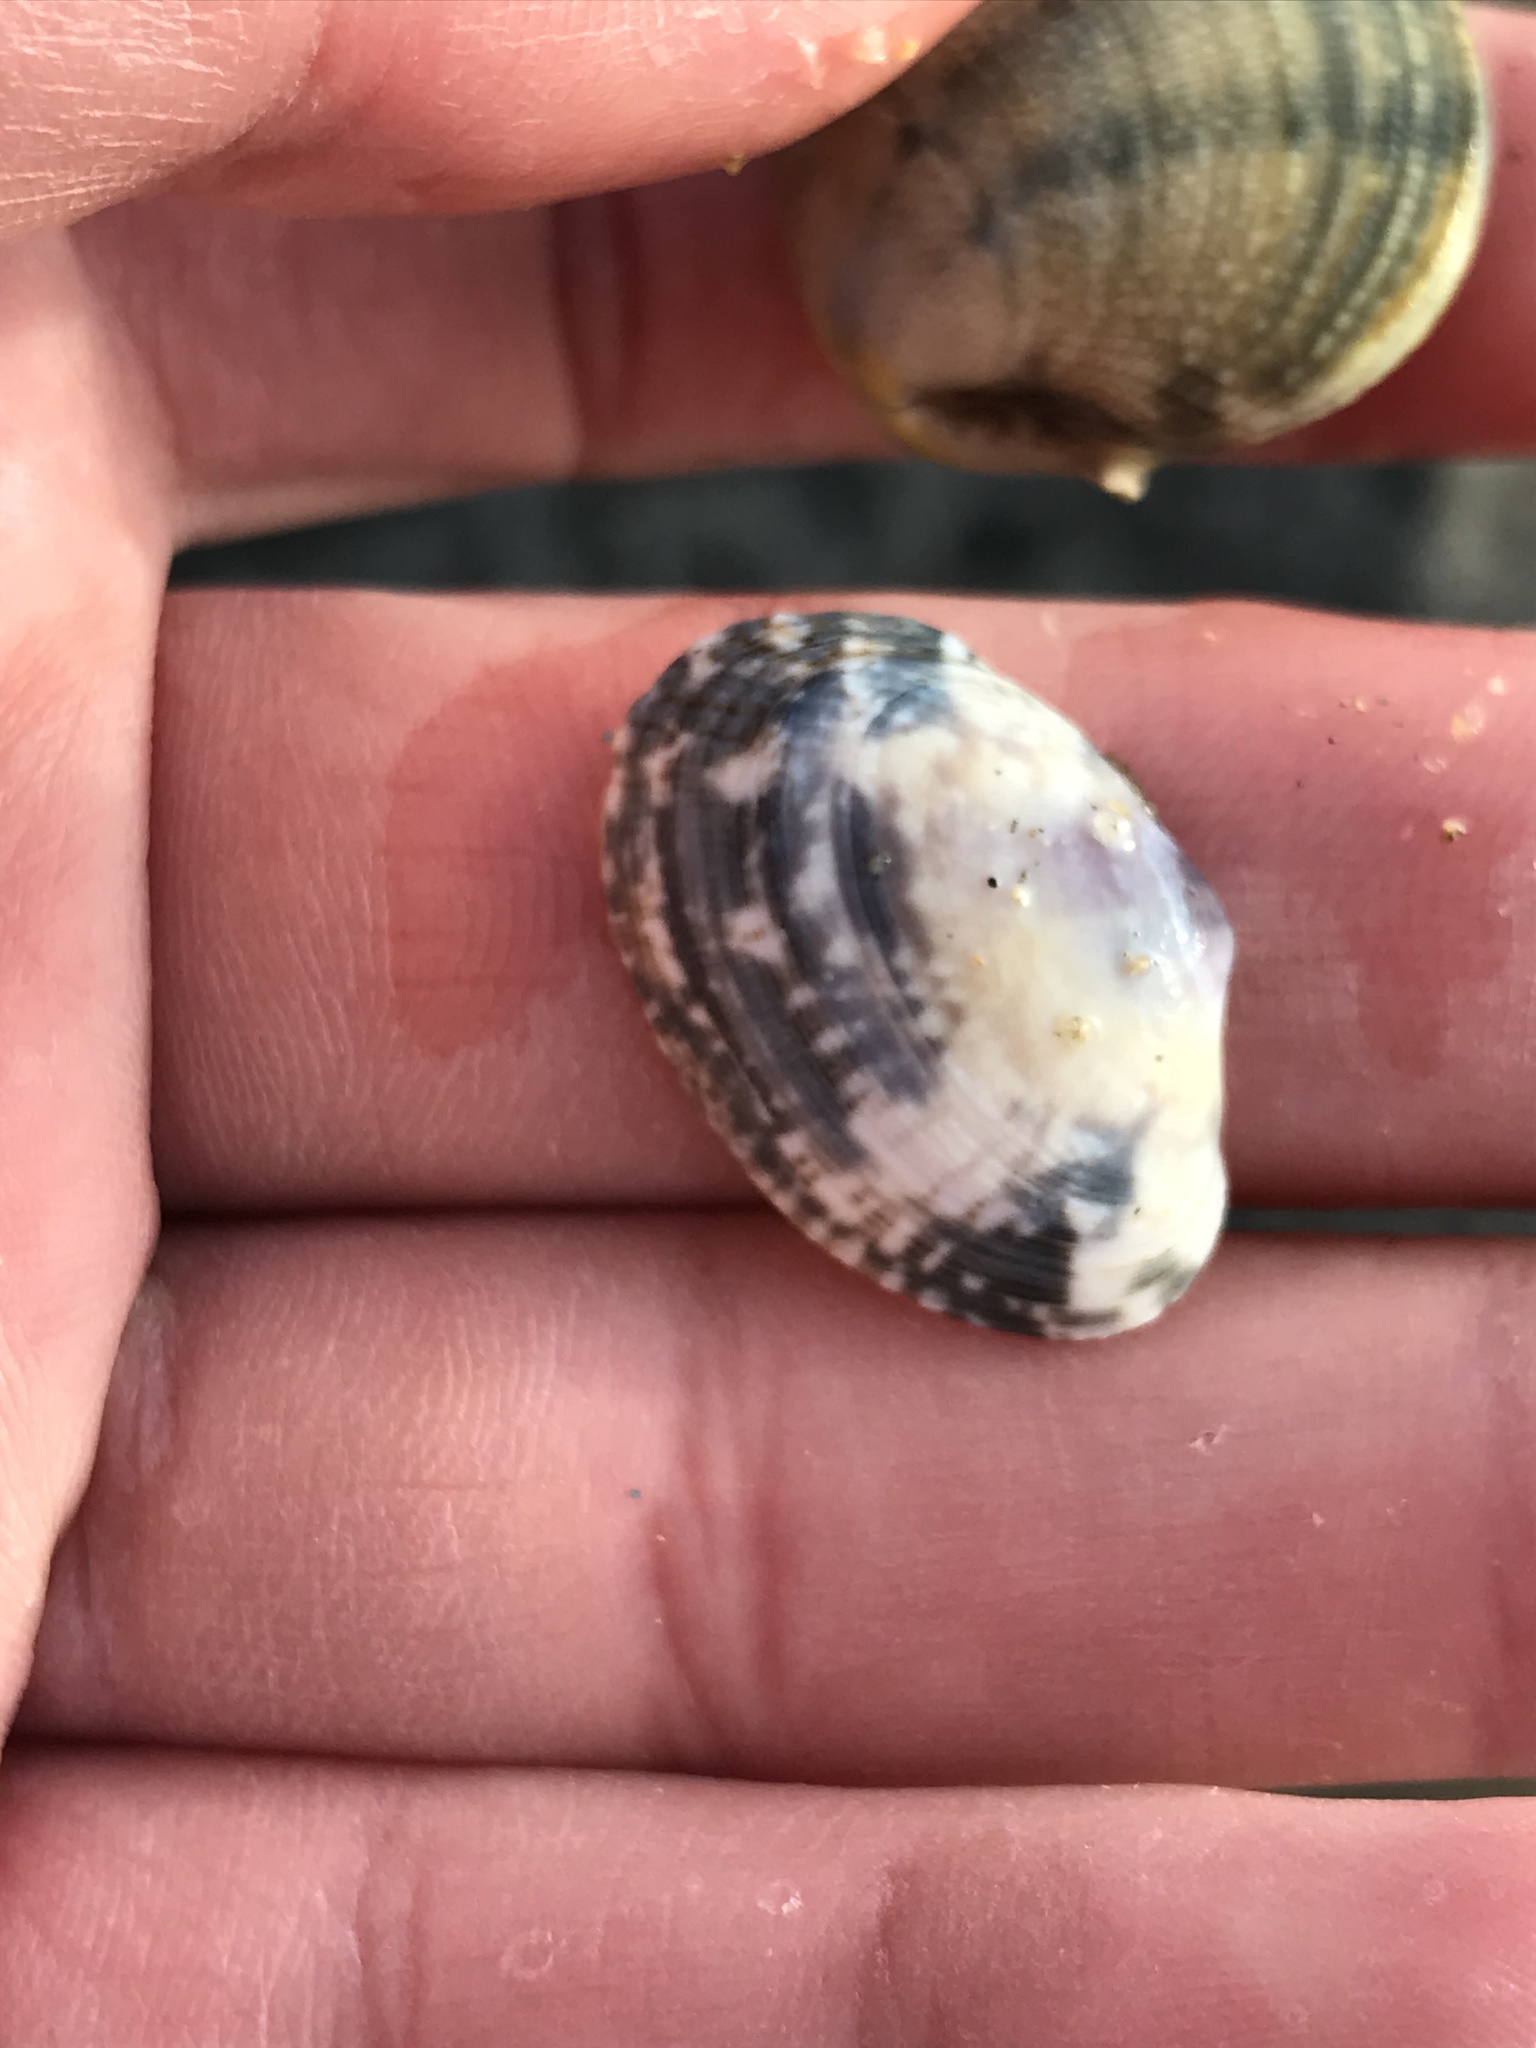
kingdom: Animalia
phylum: Mollusca
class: Bivalvia
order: Venerida
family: Veneridae
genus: Ruditapes
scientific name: Ruditapes philippinarum
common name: Manila clam
